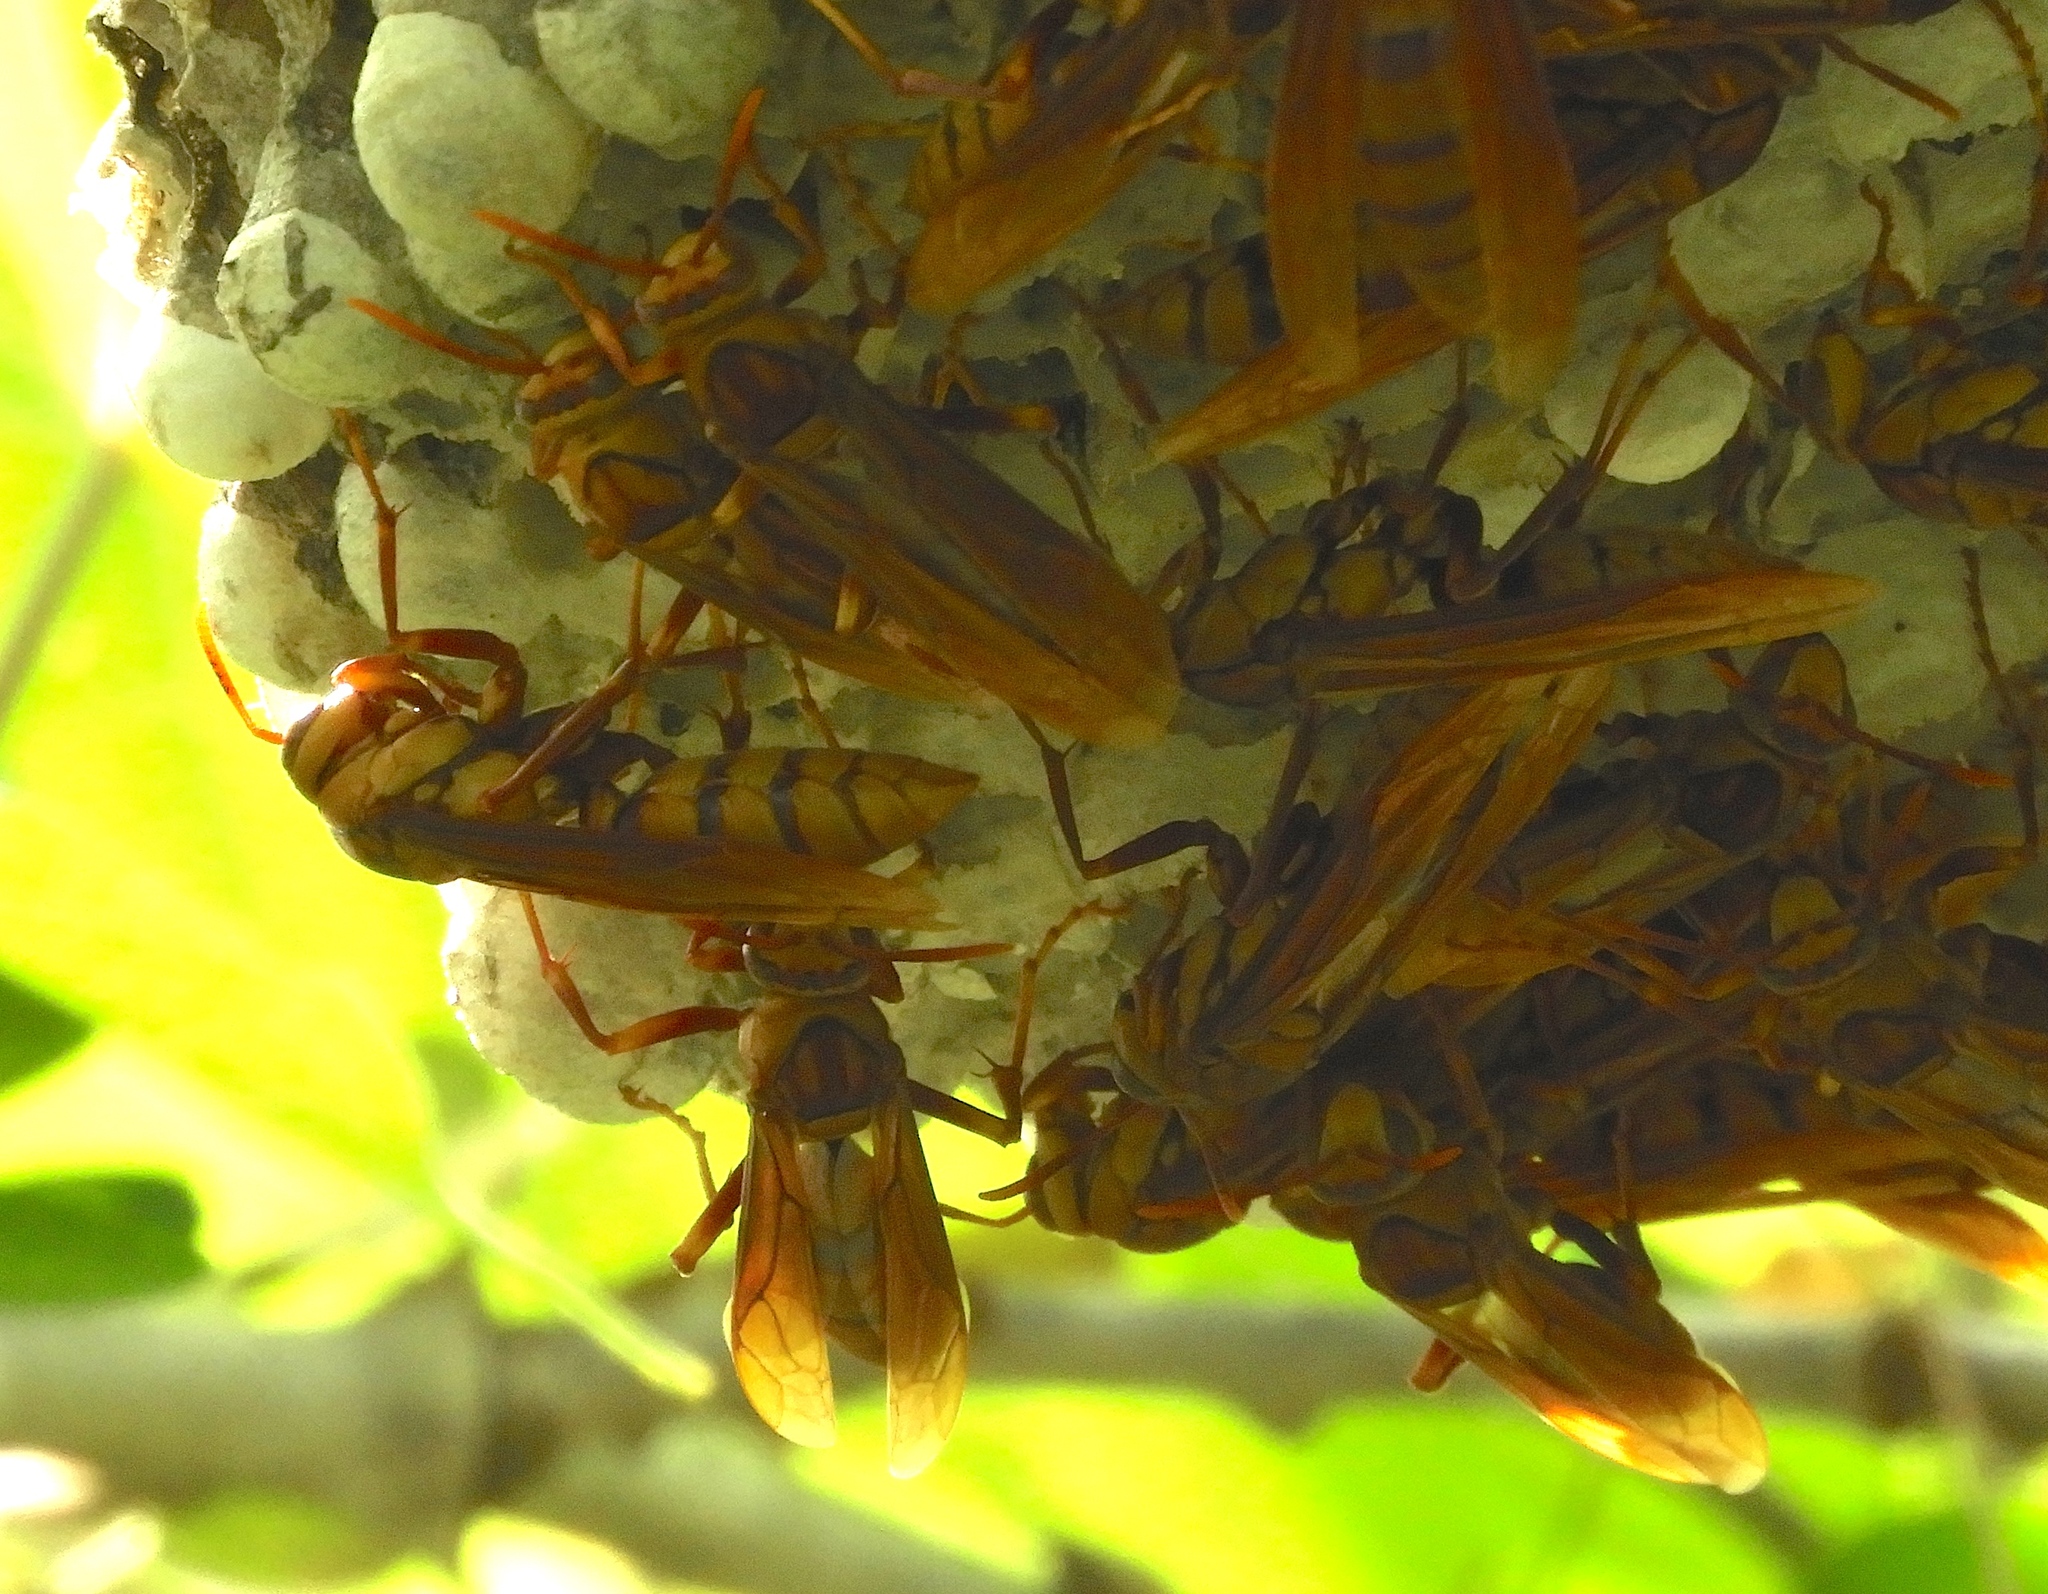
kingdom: Animalia
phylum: Arthropoda
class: Insecta
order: Hymenoptera
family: Eumenidae
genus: Polistes
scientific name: Polistes carnifex
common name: Paper wasp
